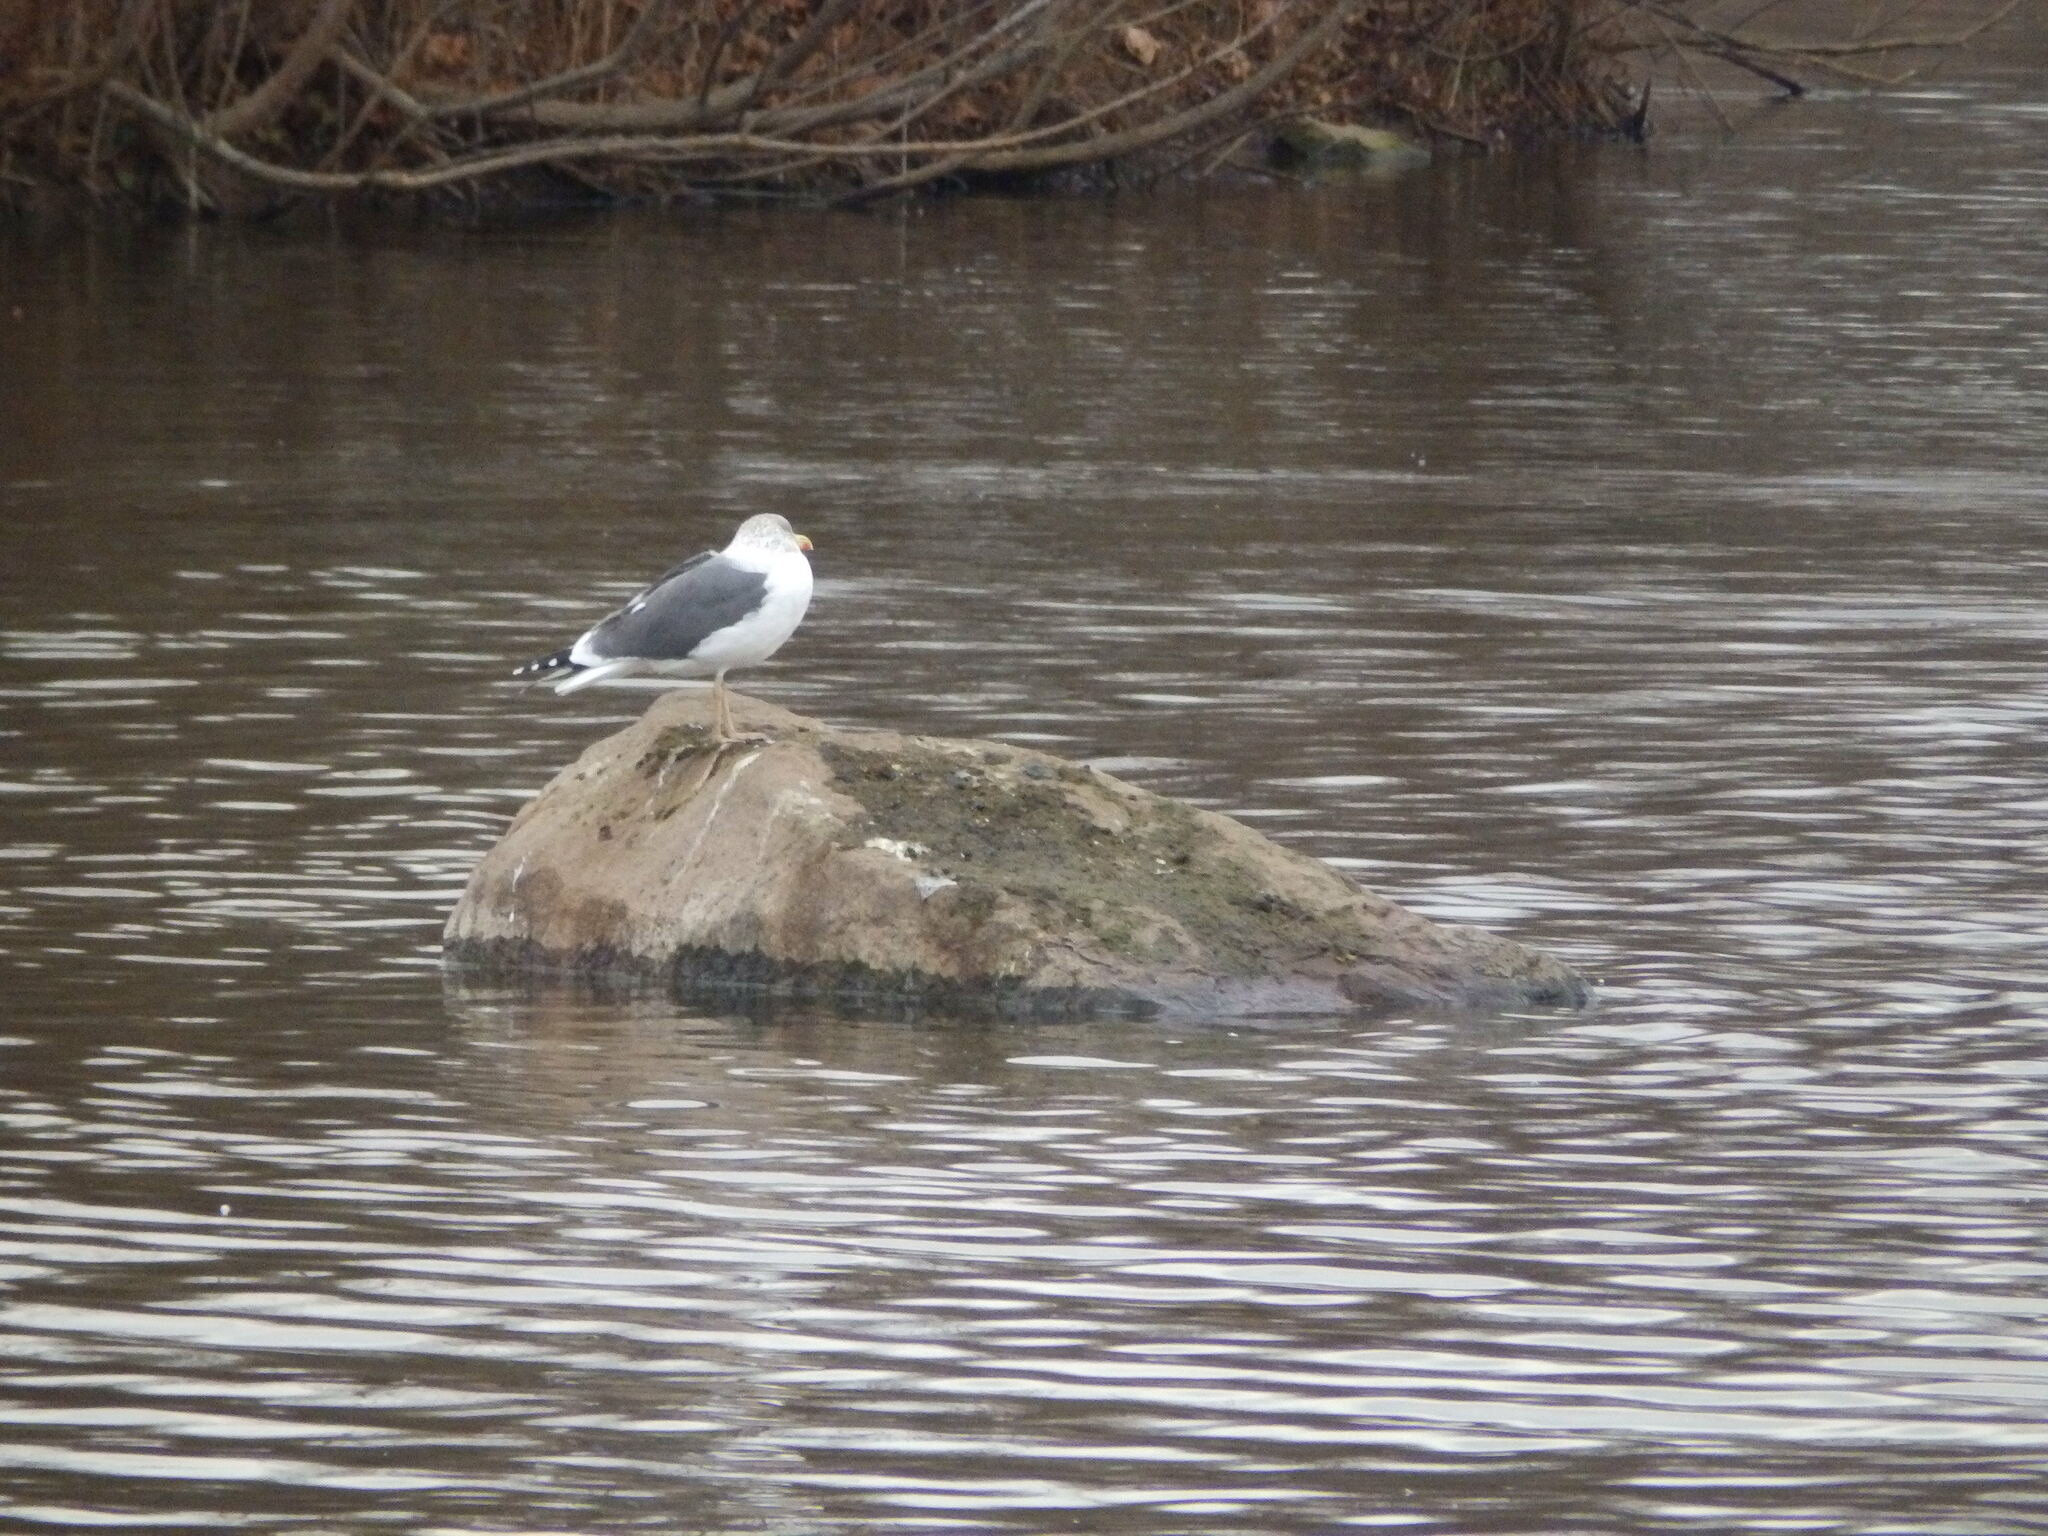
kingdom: Animalia
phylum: Chordata
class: Aves
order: Charadriiformes
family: Laridae
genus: Larus
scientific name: Larus fuscus
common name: Lesser black-backed gull
